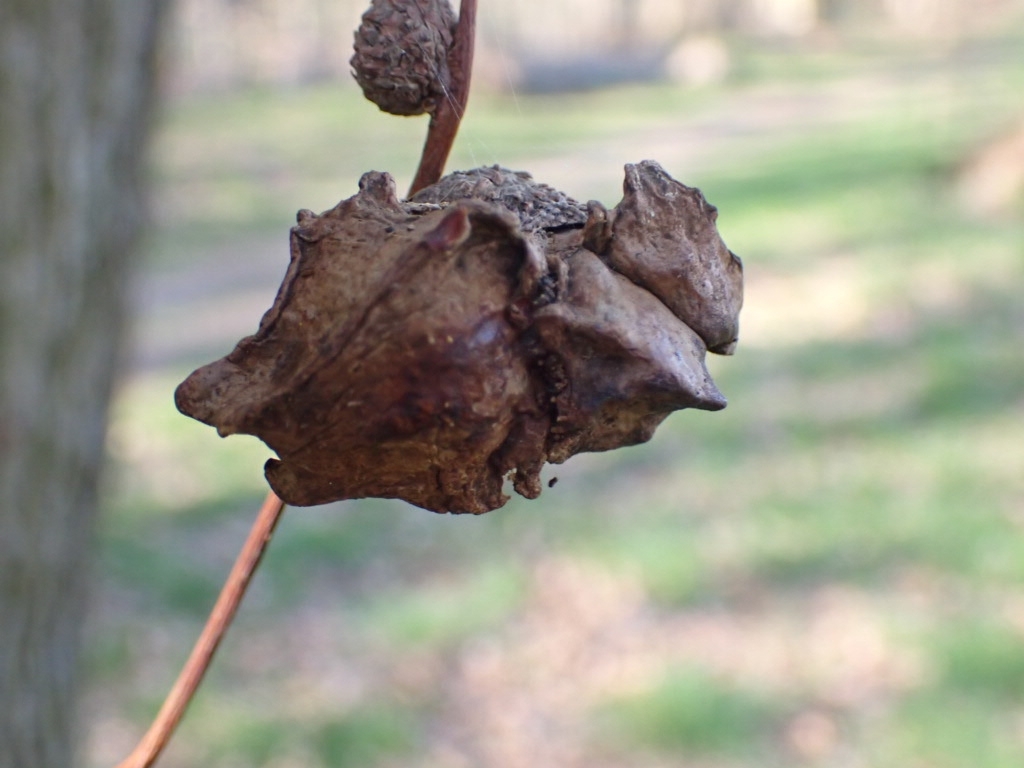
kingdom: Animalia
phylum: Arthropoda
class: Insecta
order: Hymenoptera
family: Cynipidae
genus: Andricus
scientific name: Andricus quercuscalicis
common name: Knopper gall
